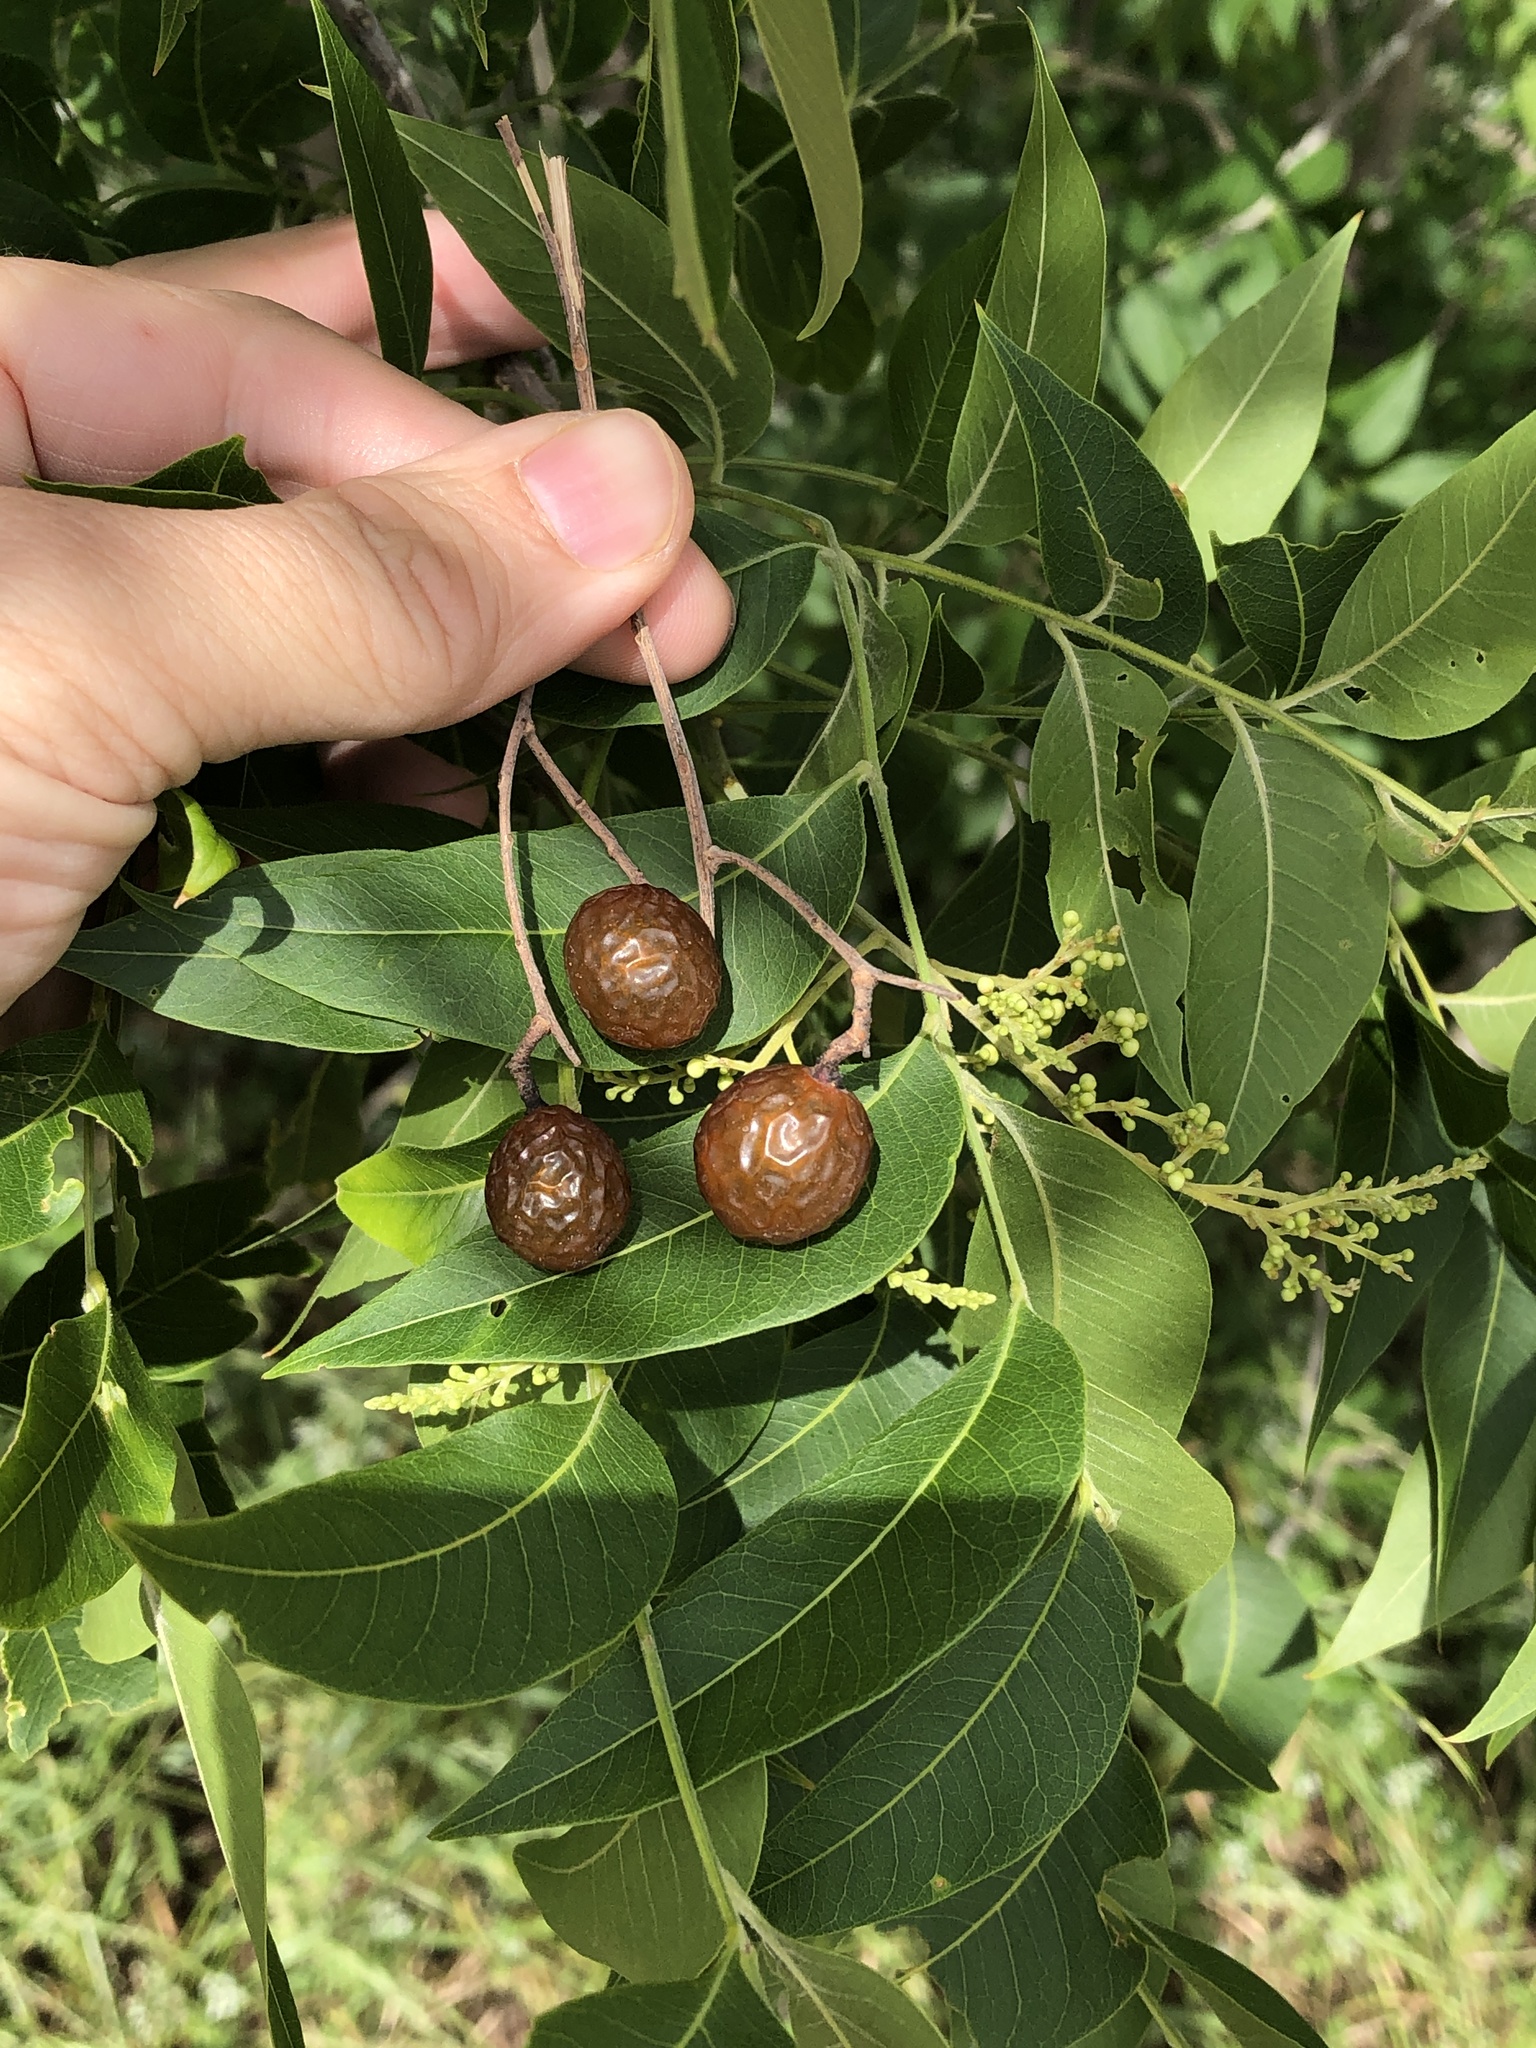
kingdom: Plantae
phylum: Tracheophyta
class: Magnoliopsida
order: Sapindales
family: Sapindaceae
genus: Sapindus
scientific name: Sapindus drummondii
